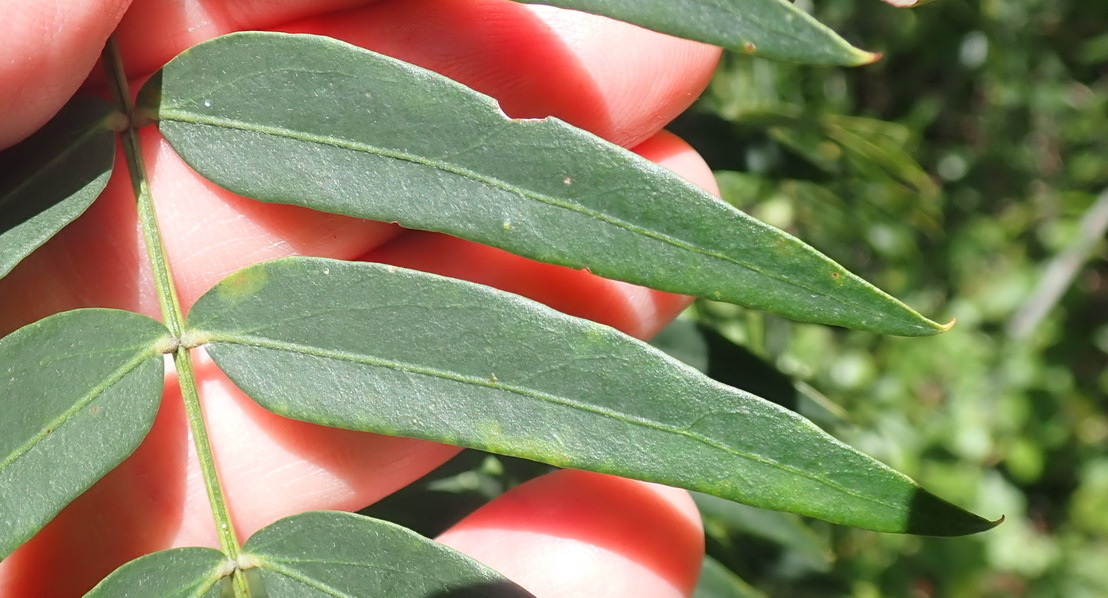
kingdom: Plantae
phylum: Tracheophyta
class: Magnoliopsida
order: Fabales
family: Fabaceae
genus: Acacia
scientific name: Acacia elata
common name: Cedar wattle
